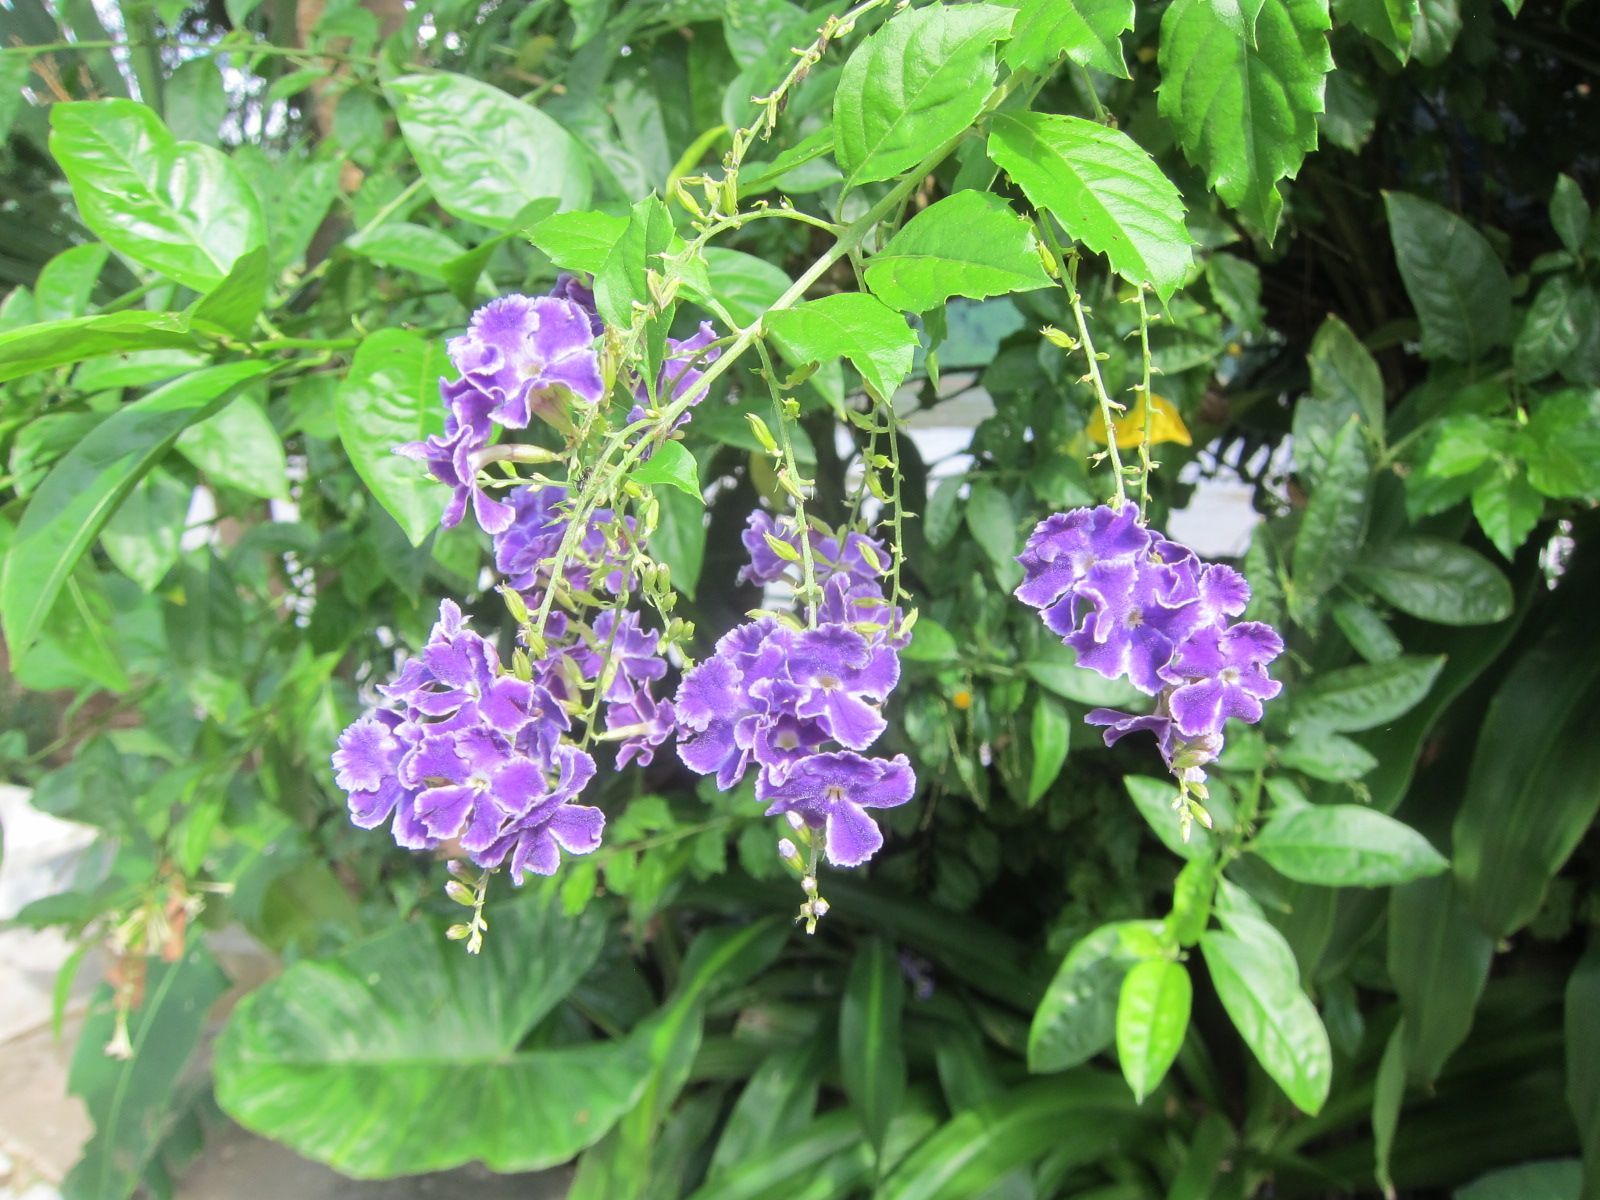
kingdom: Plantae
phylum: Tracheophyta
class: Magnoliopsida
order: Lamiales
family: Verbenaceae
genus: Duranta
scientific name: Duranta erecta
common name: Golden dewdrops
